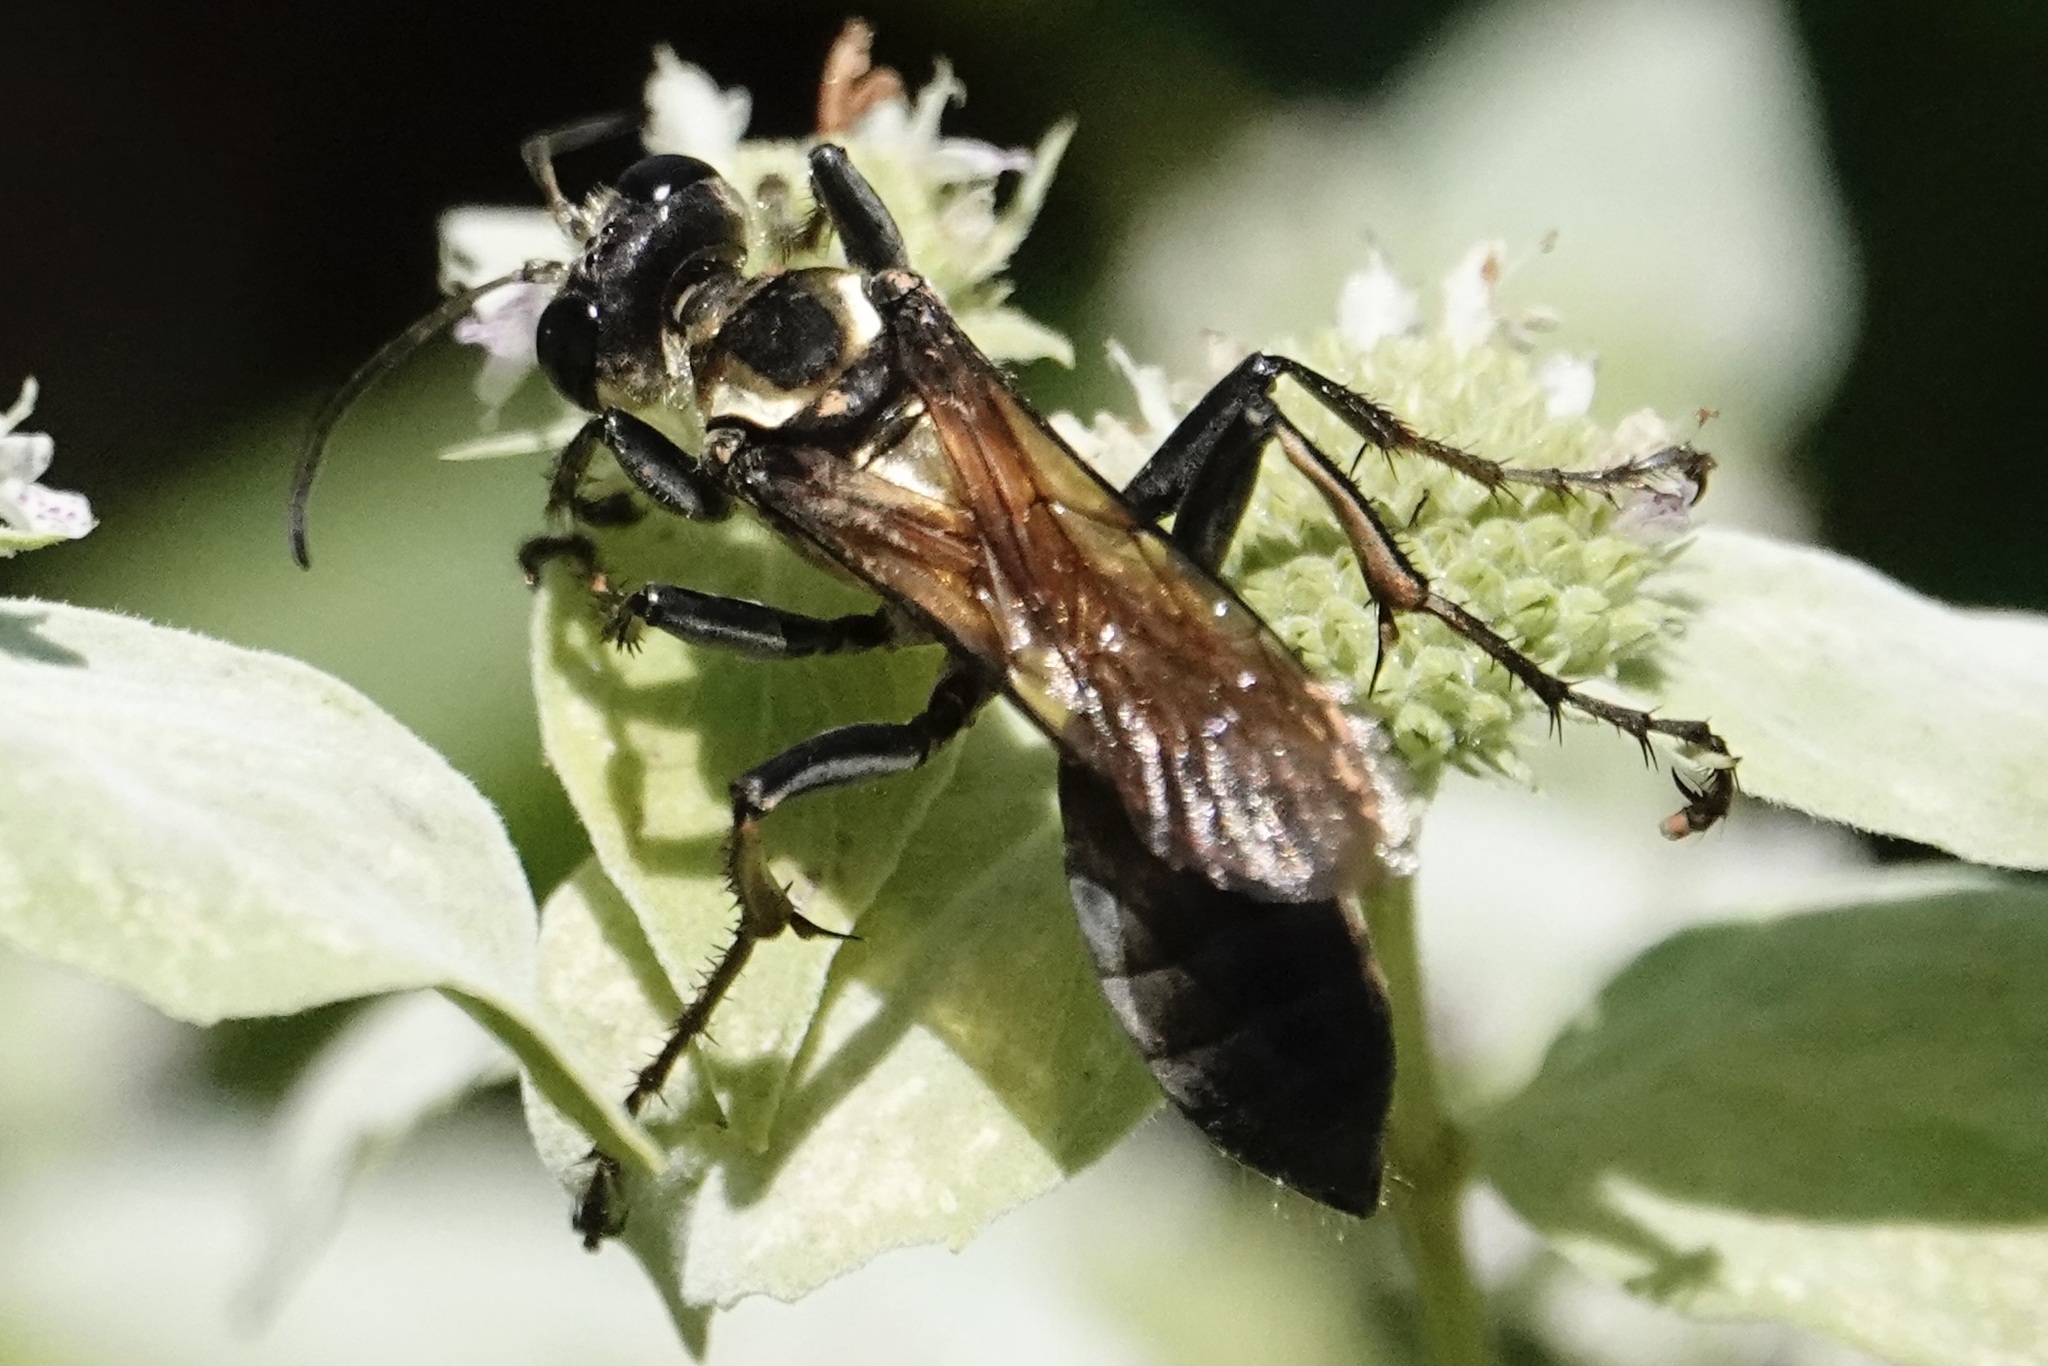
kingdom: Animalia
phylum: Arthropoda
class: Insecta
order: Hymenoptera
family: Sphecidae
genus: Sphex
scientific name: Sphex habenus
